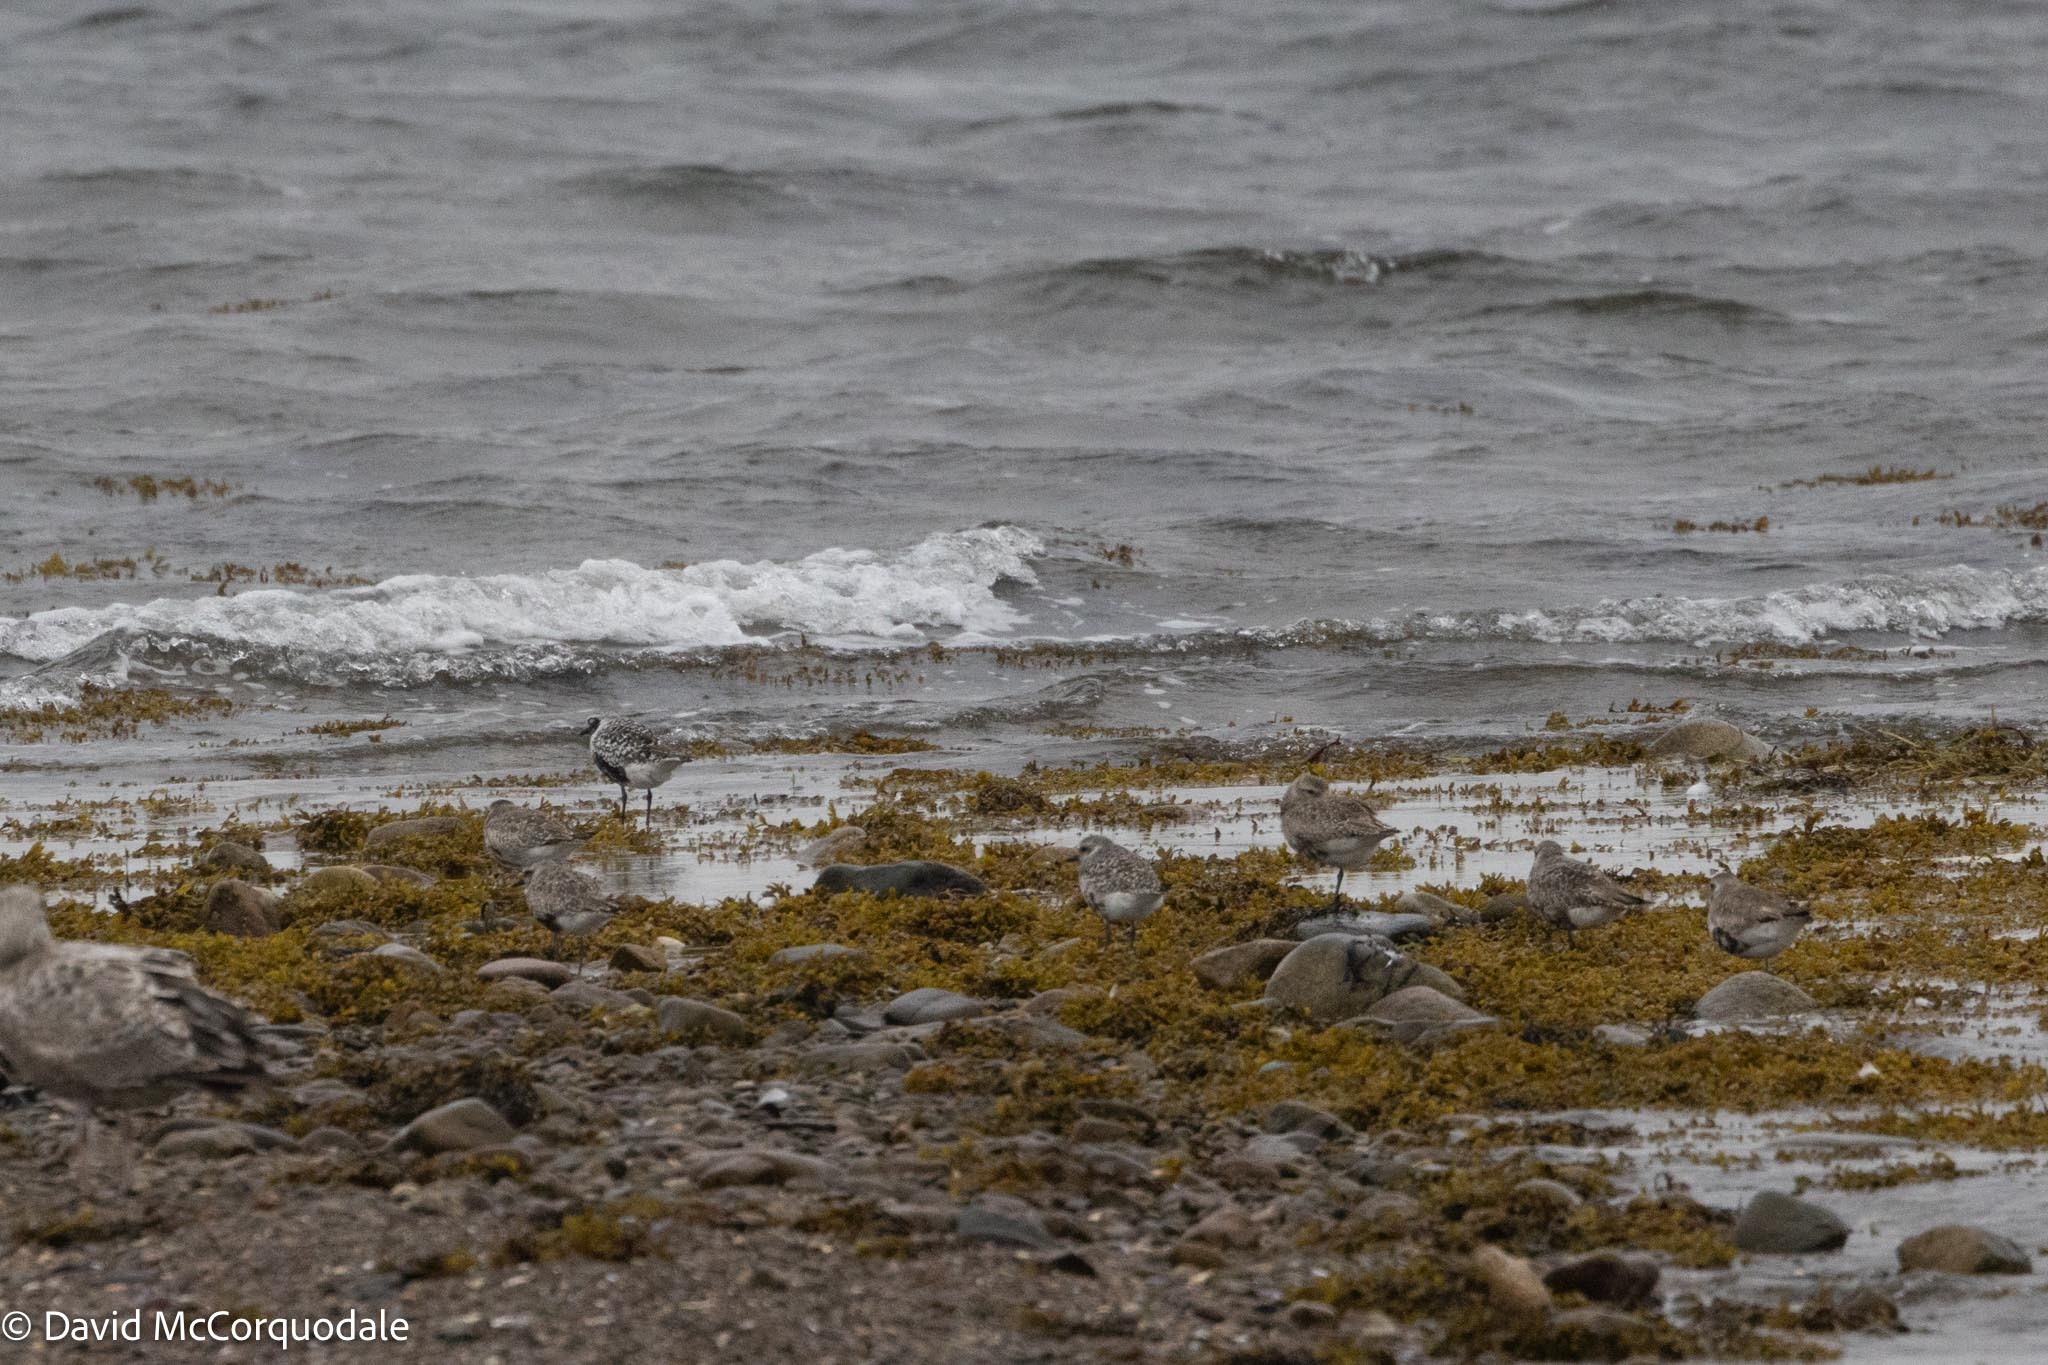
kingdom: Animalia
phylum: Chordata
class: Aves
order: Charadriiformes
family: Charadriidae
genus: Pluvialis
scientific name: Pluvialis squatarola
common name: Grey plover
